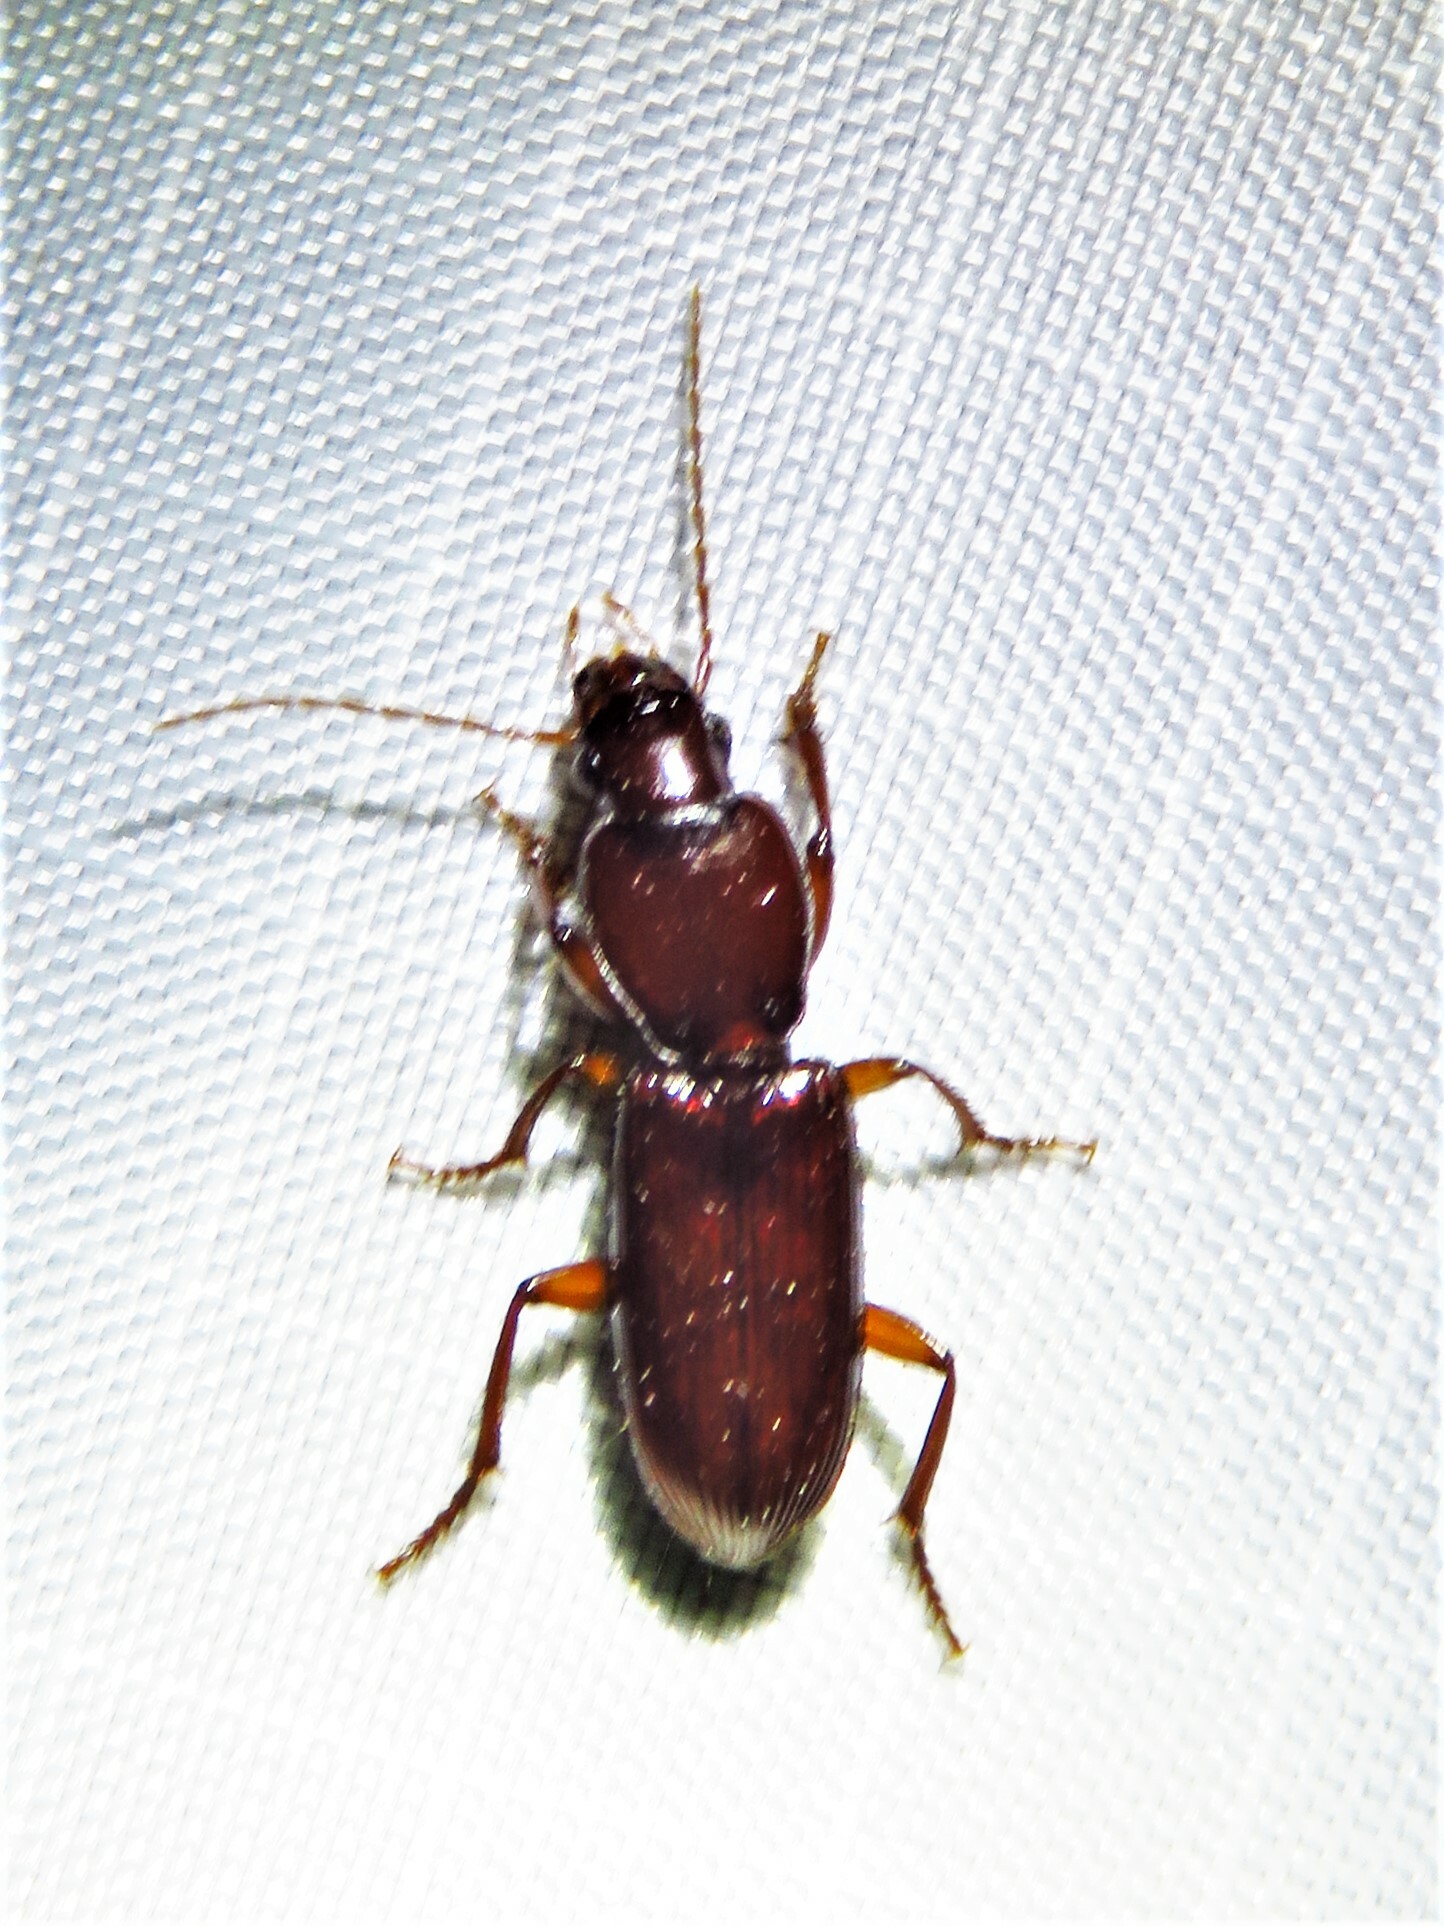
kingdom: Animalia
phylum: Arthropoda
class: Insecta
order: Coleoptera
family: Carabidae
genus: Stenomorphus
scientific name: Stenomorphus californicus
